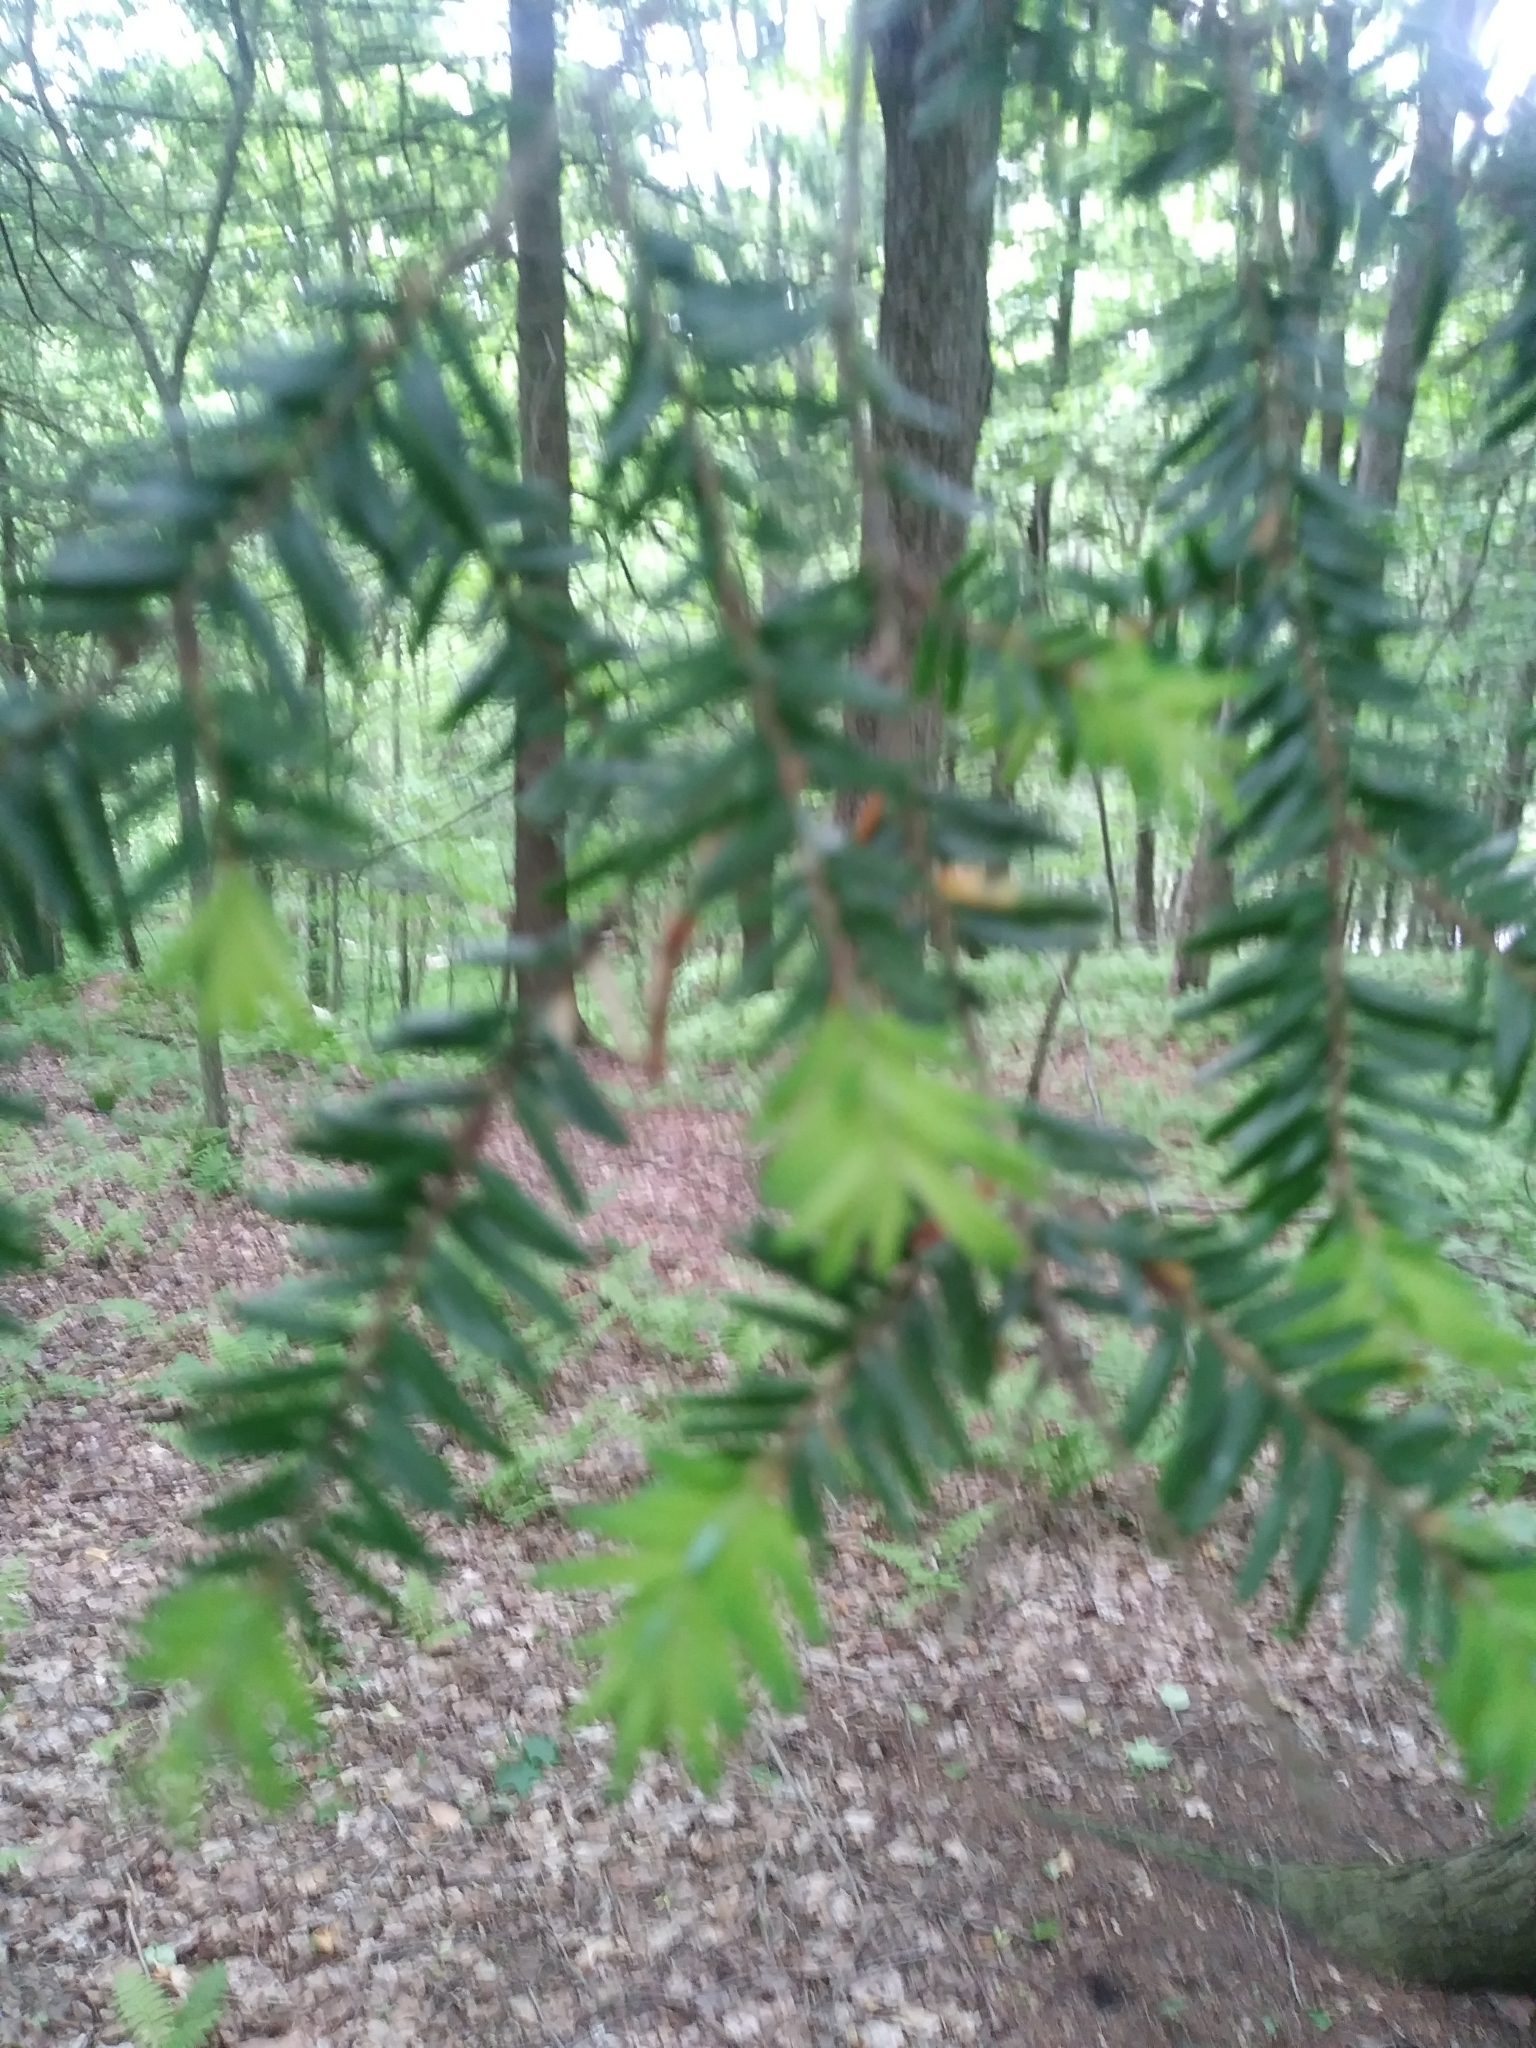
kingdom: Plantae
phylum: Tracheophyta
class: Pinopsida
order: Pinales
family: Pinaceae
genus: Tsuga
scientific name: Tsuga canadensis
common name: Eastern hemlock
